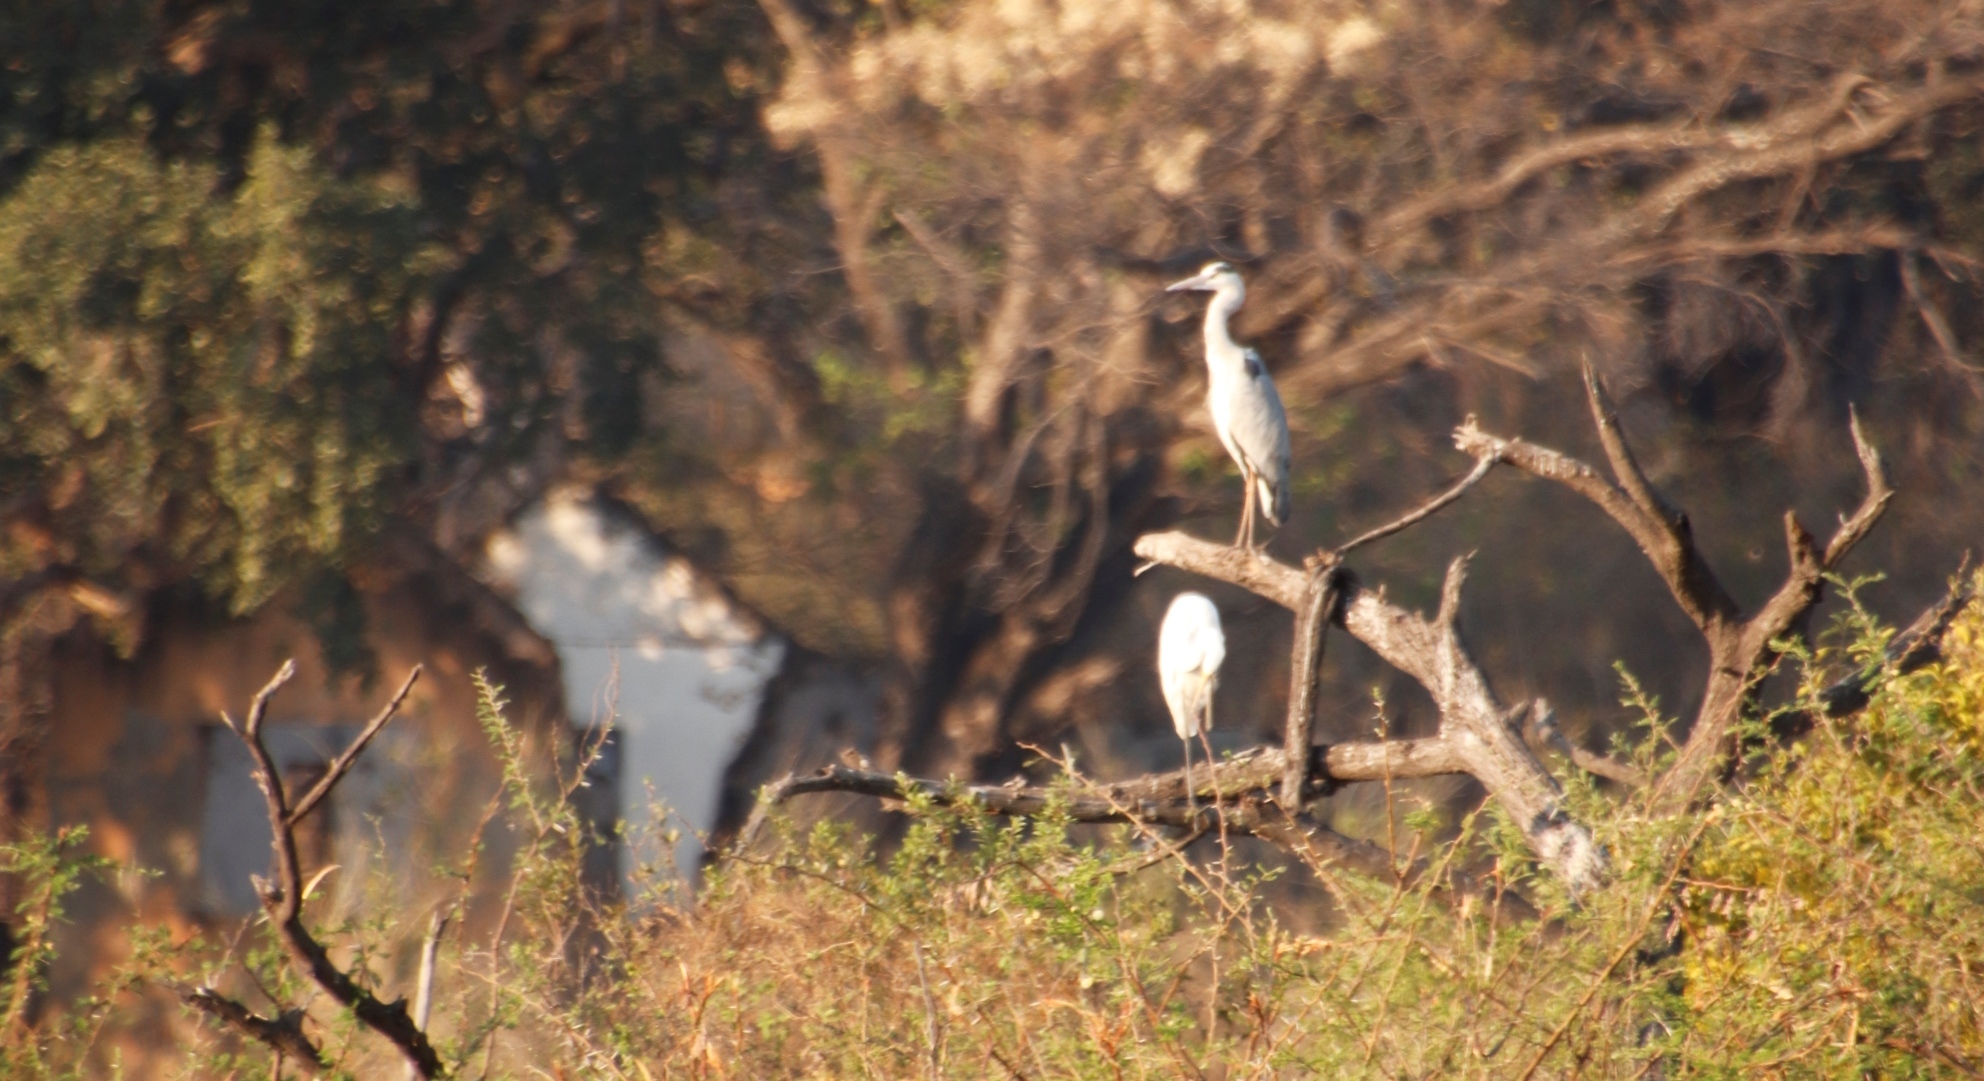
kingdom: Animalia
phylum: Chordata
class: Aves
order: Pelecaniformes
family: Ardeidae
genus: Ardea
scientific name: Ardea cinerea
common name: Grey heron
